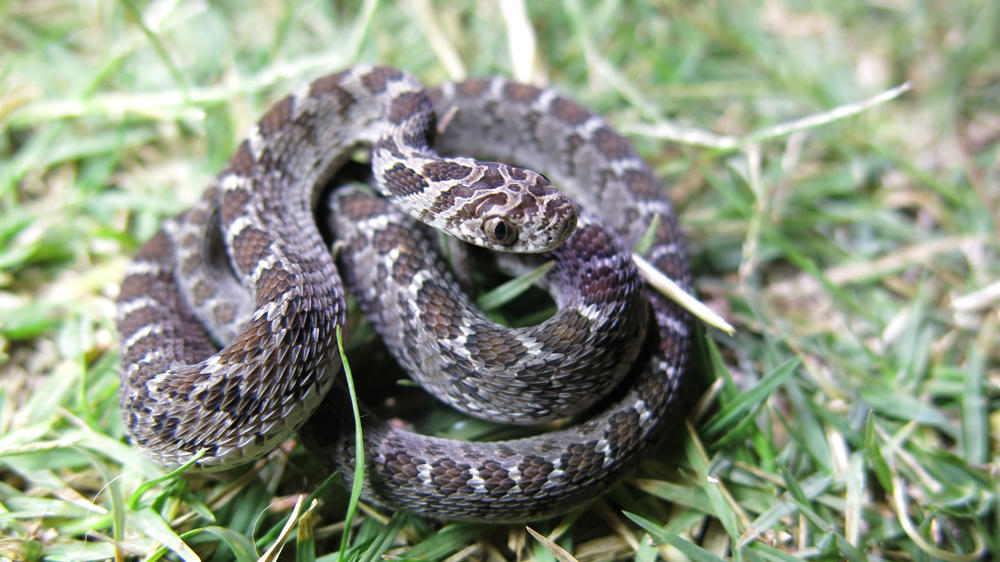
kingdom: Animalia
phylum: Chordata
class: Squamata
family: Colubridae
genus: Dasypeltis
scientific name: Dasypeltis scabra
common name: Common egg eater
